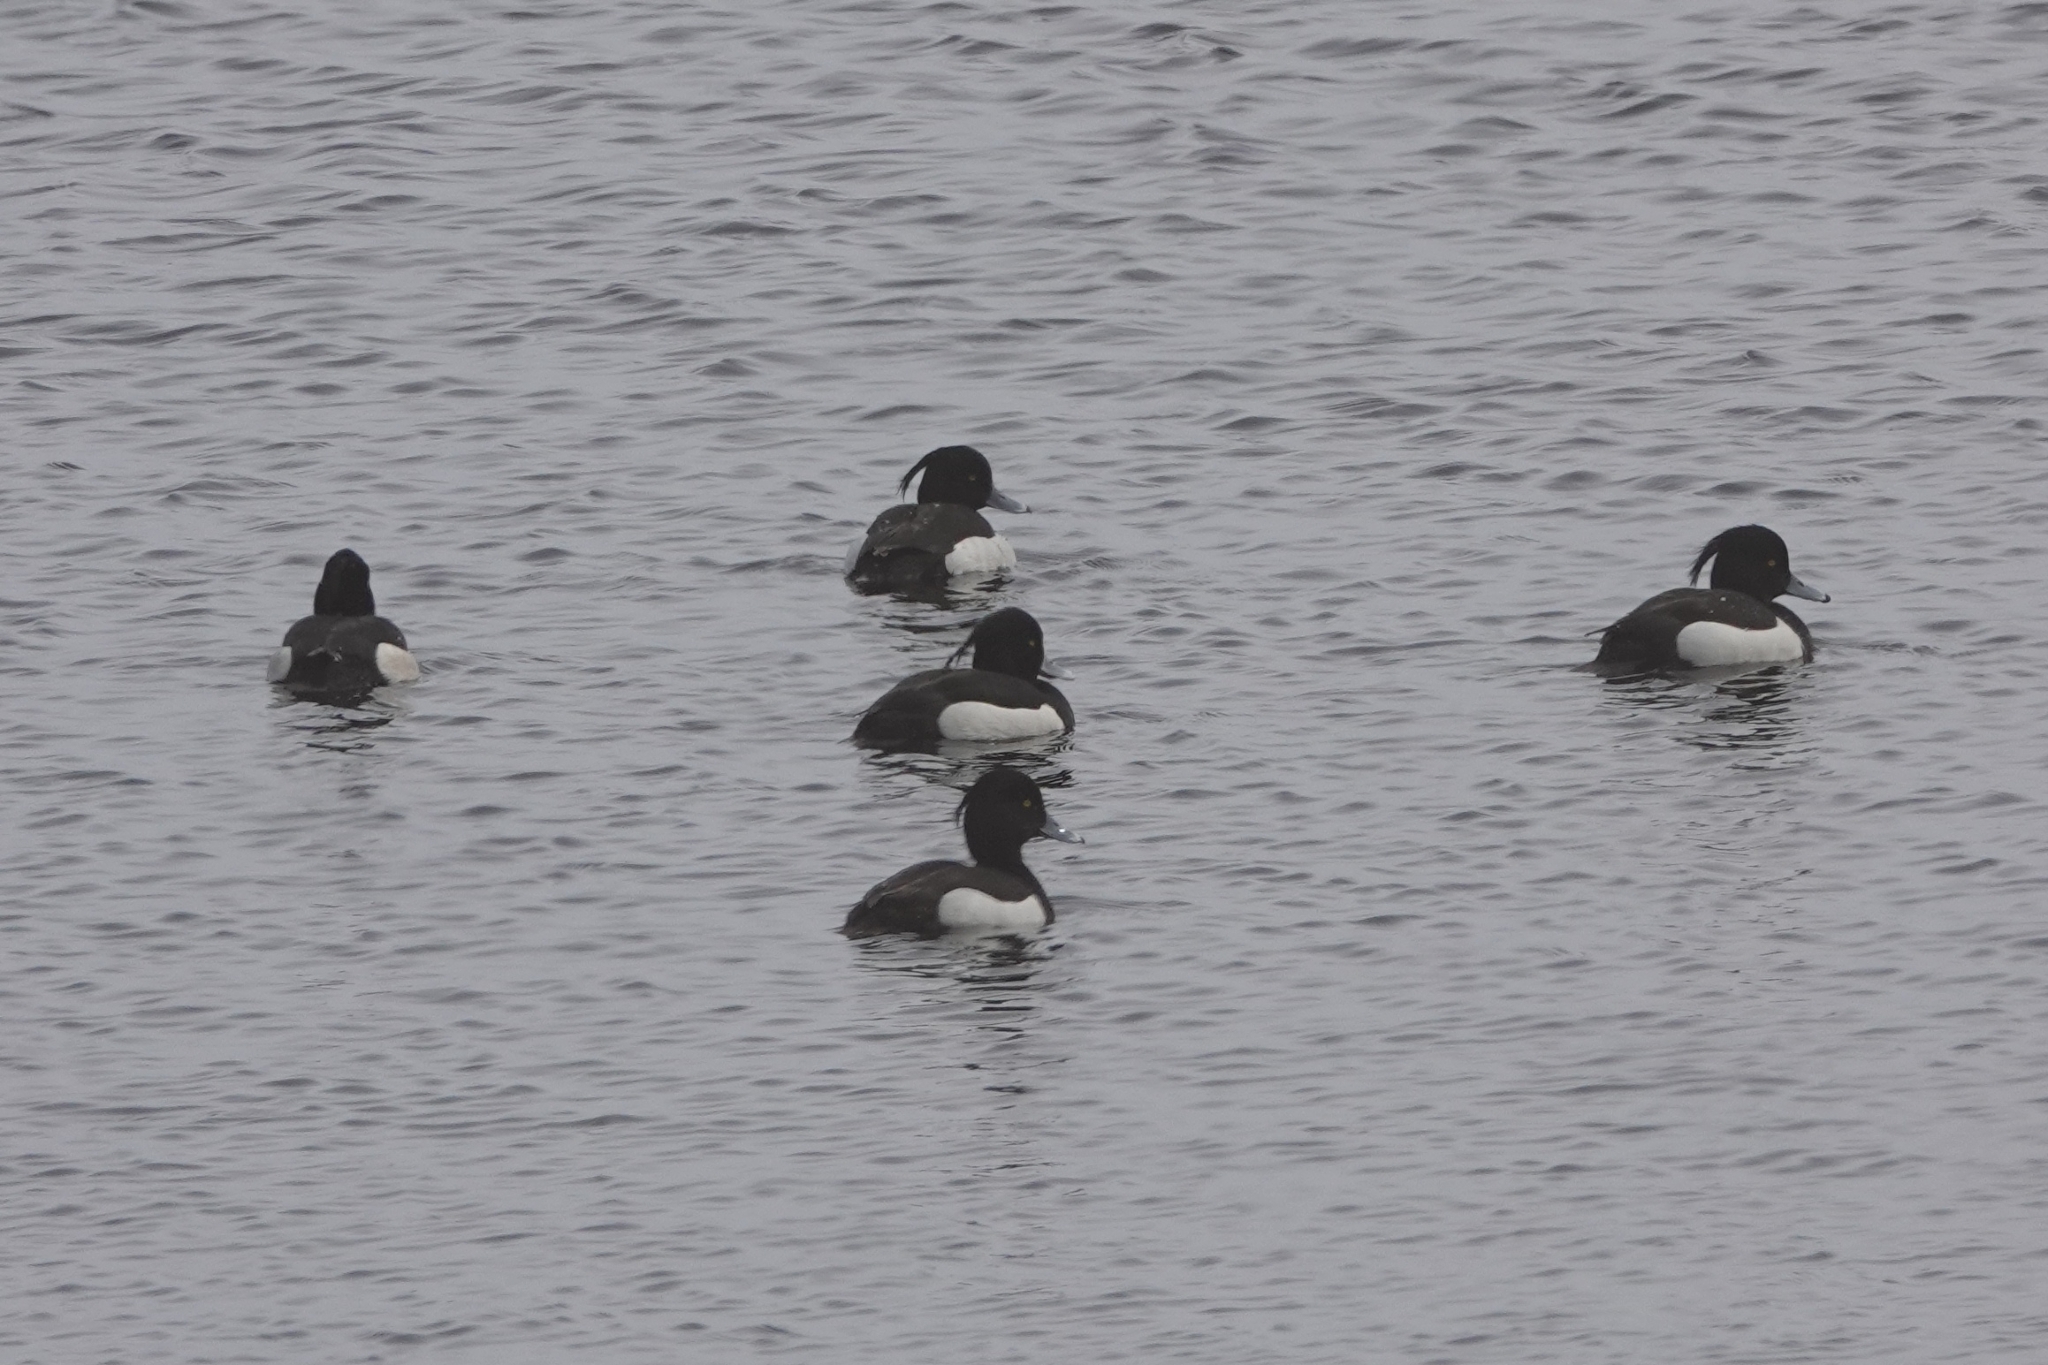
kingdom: Animalia
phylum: Chordata
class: Aves
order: Anseriformes
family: Anatidae
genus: Aythya
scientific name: Aythya fuligula
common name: Tufted duck
